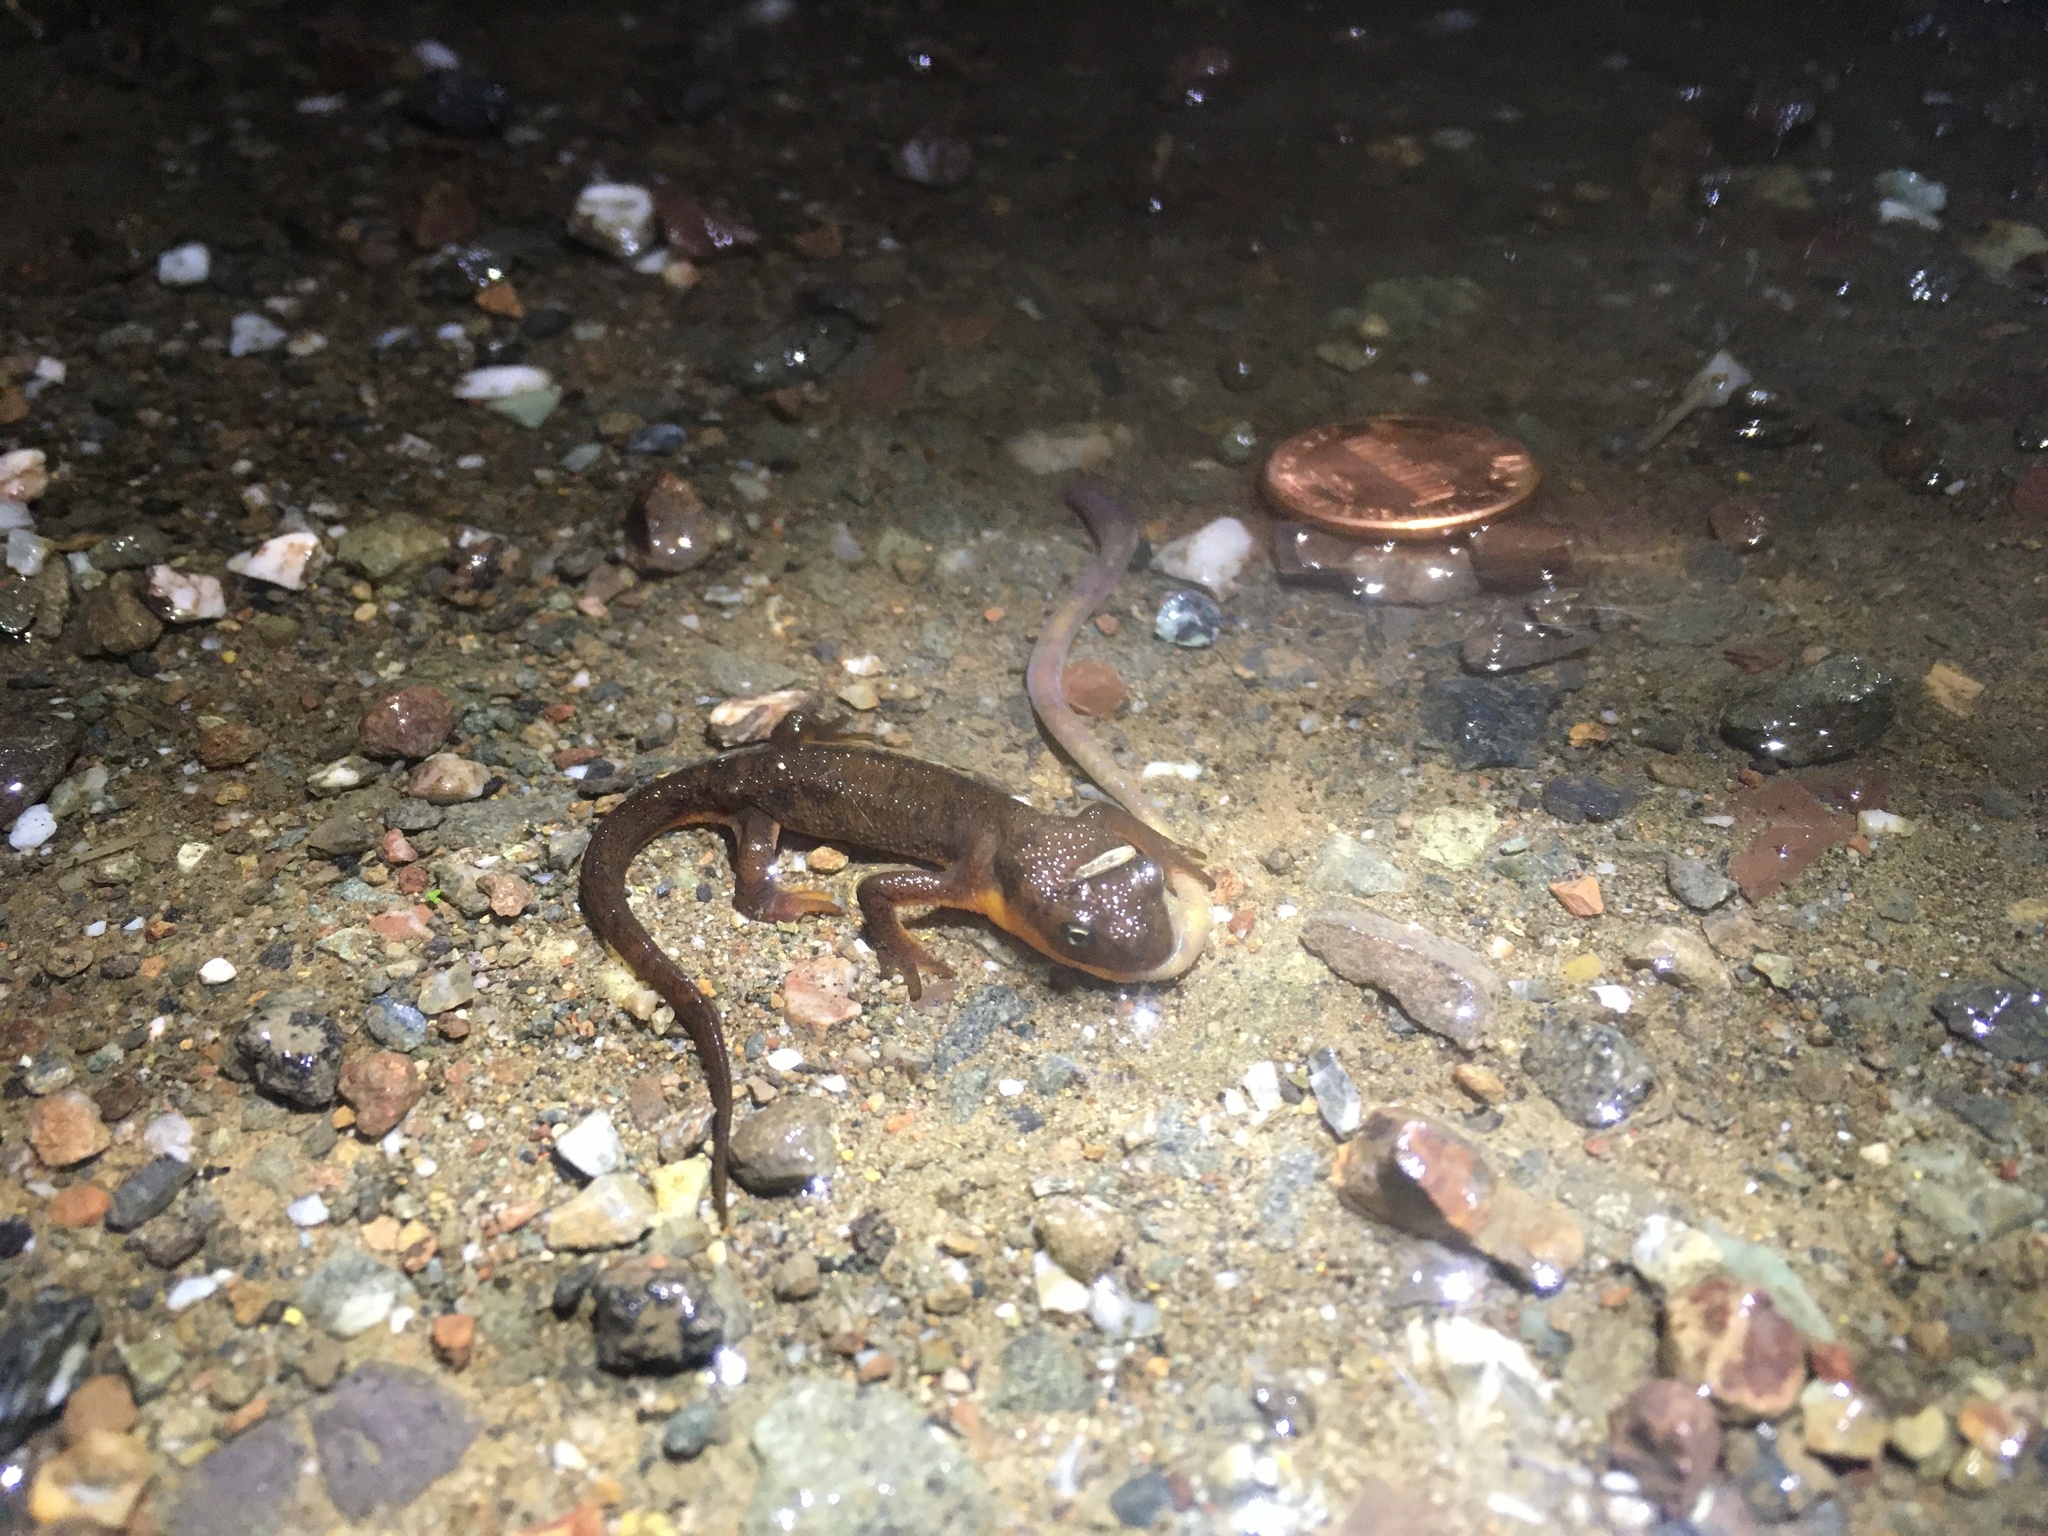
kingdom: Animalia
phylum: Chordata
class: Amphibia
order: Caudata
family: Salamandridae
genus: Taricha
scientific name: Taricha granulosa
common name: Roughskin newt
